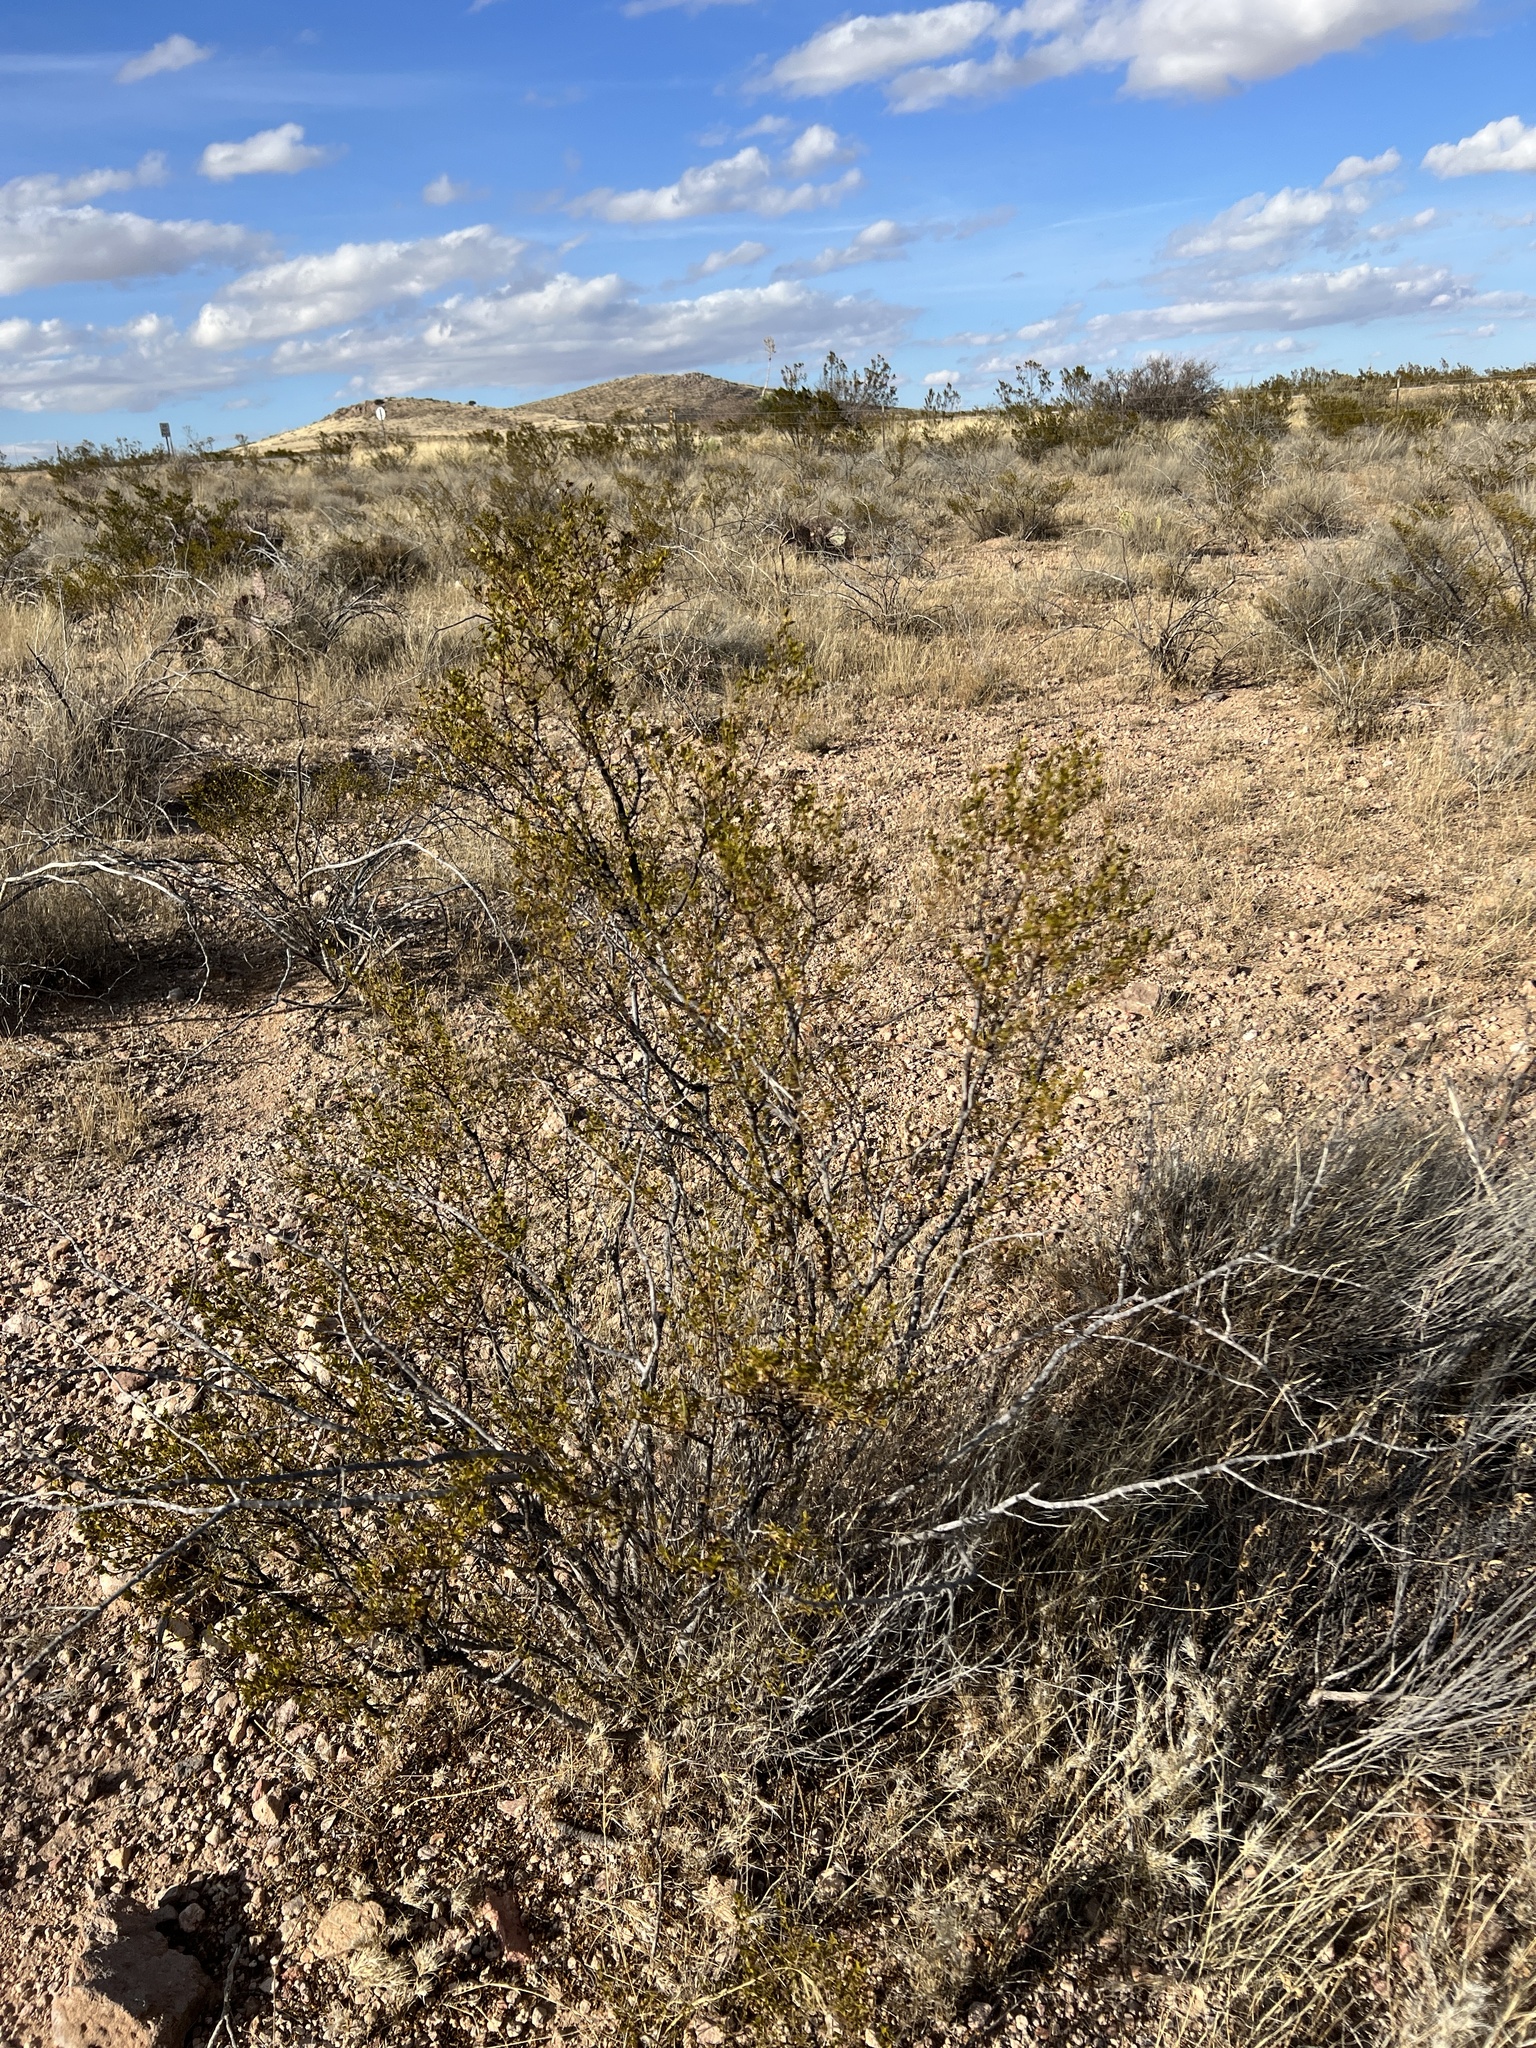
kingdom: Plantae
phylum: Tracheophyta
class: Magnoliopsida
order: Zygophyllales
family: Zygophyllaceae
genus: Larrea
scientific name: Larrea tridentata
